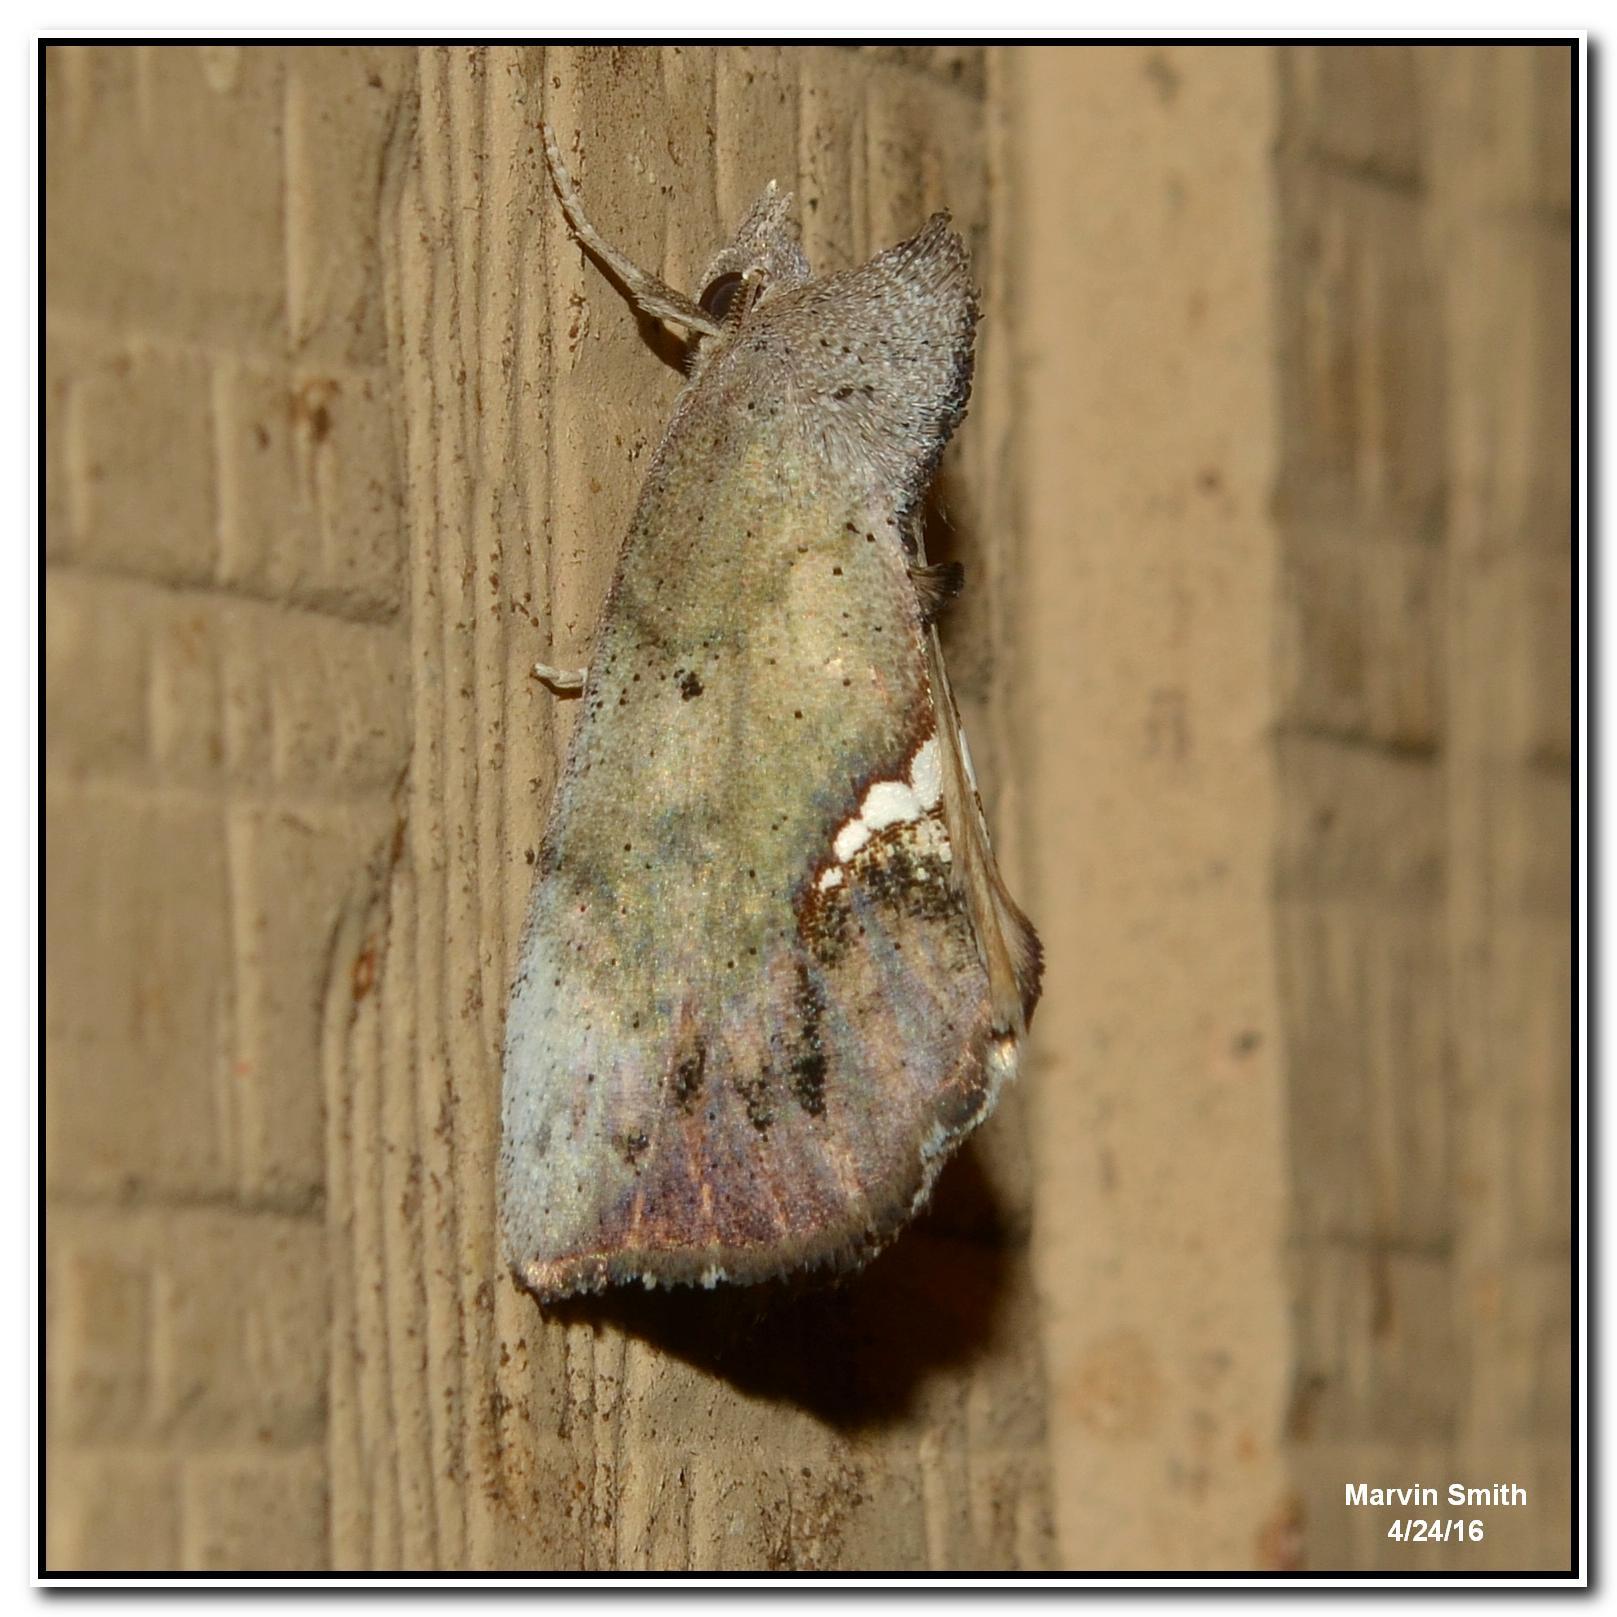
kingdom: Animalia
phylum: Arthropoda
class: Insecta
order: Lepidoptera
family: Erebidae
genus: Hypsoropha
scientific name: Hypsoropha hormos
